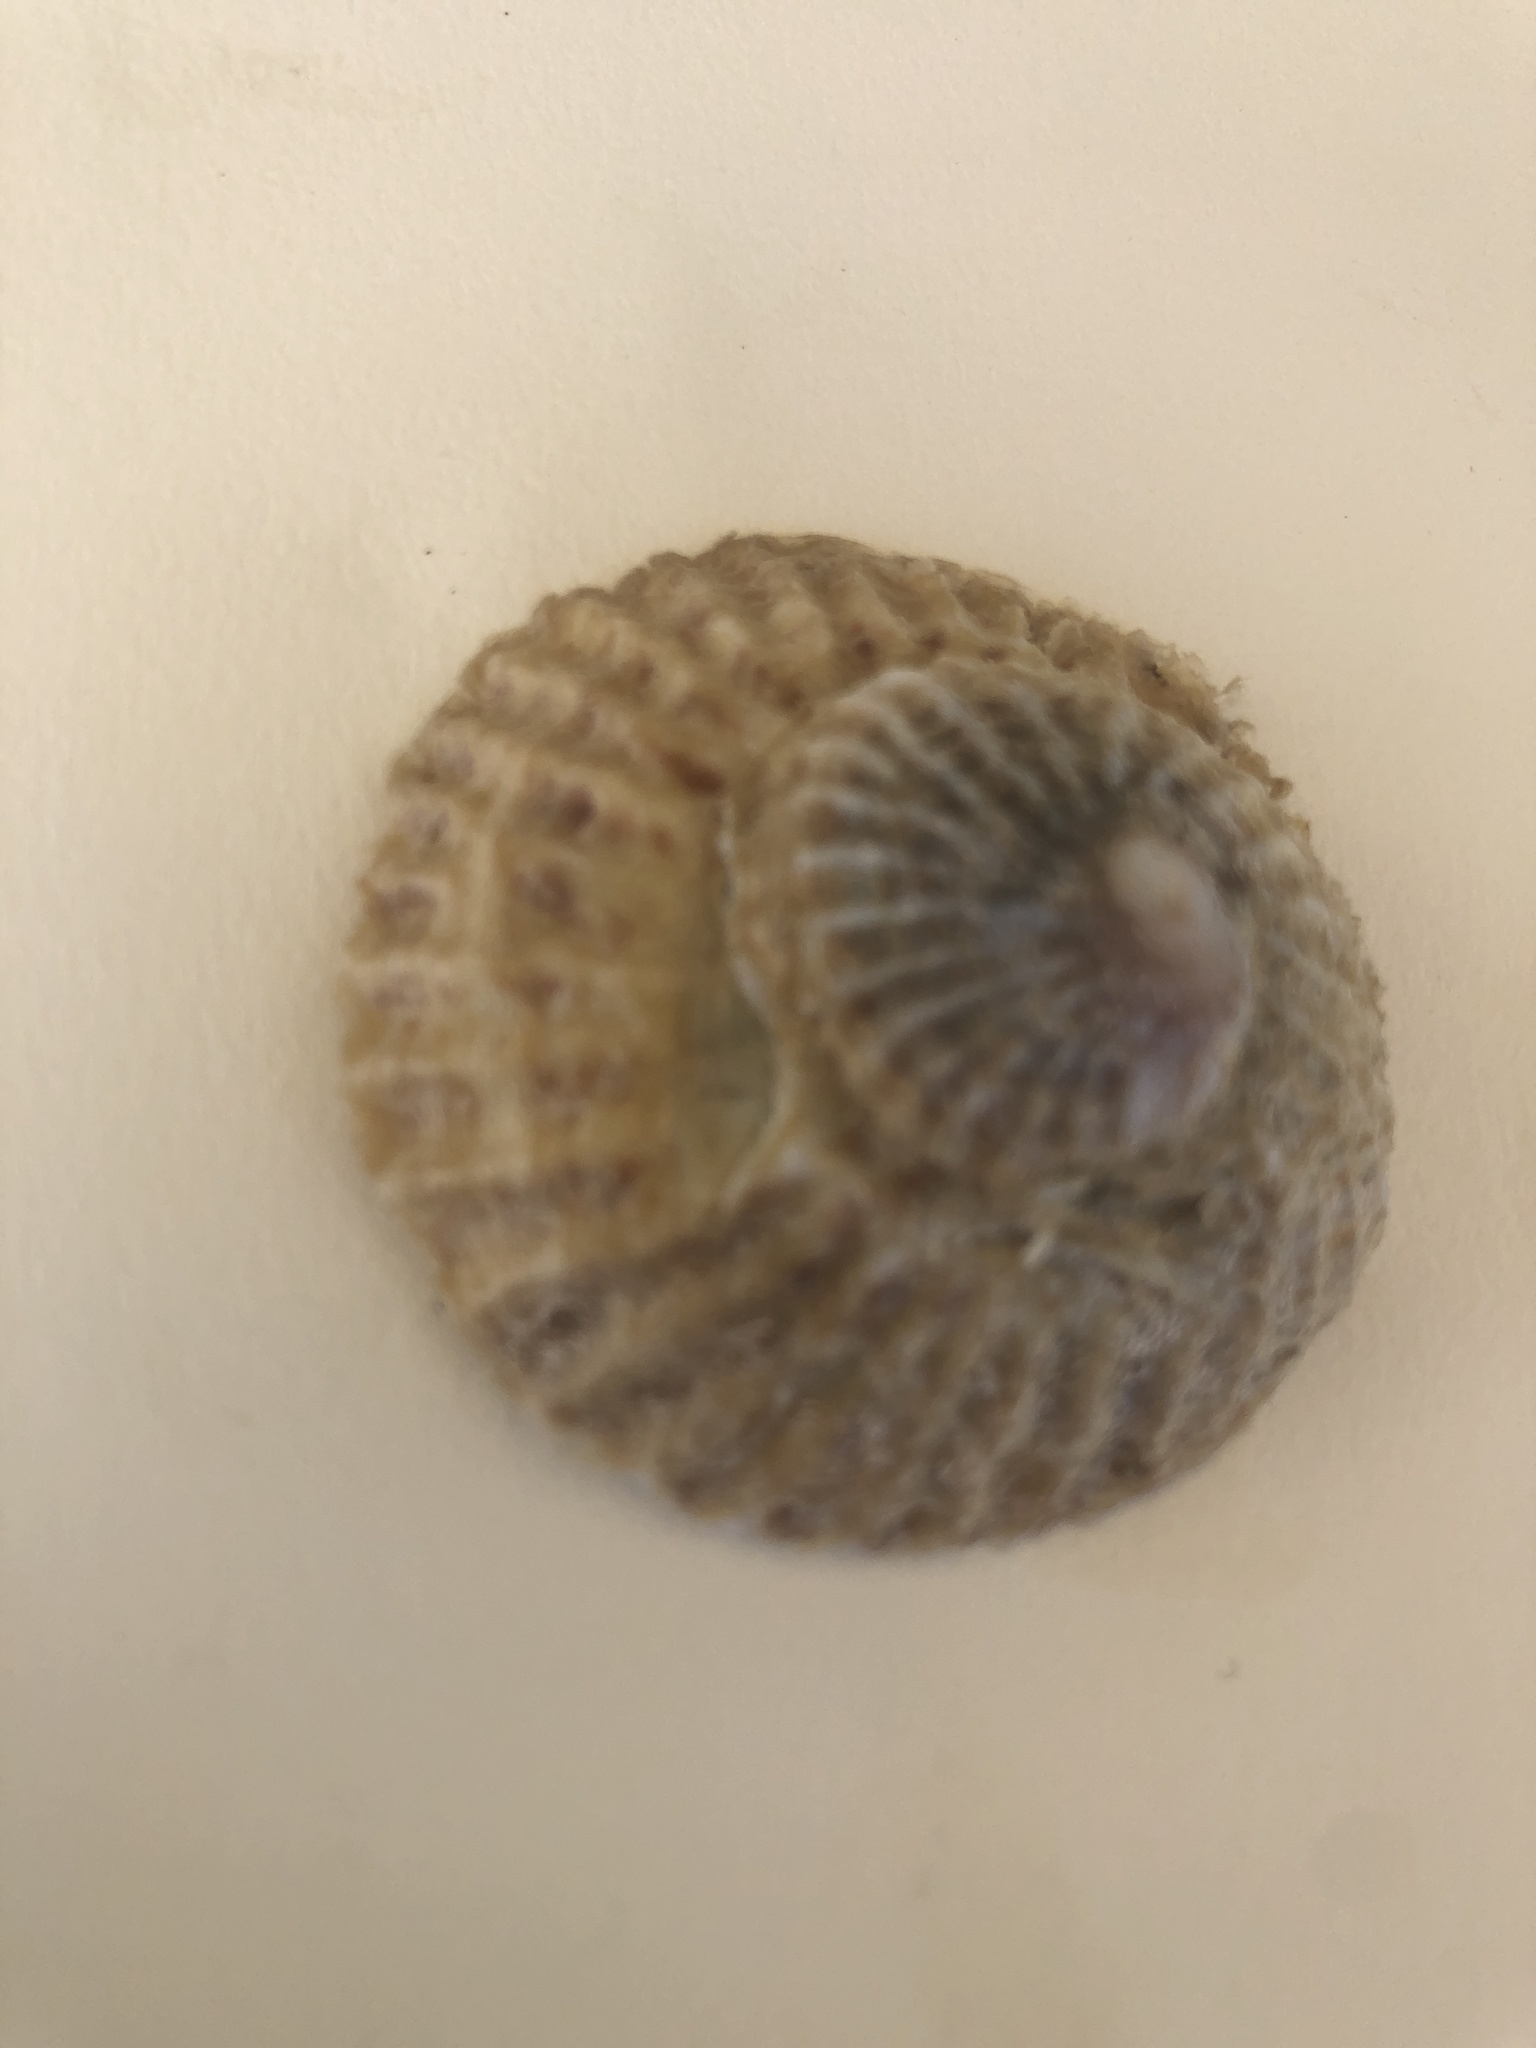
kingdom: Animalia
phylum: Mollusca
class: Gastropoda
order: Littorinimorpha
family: Calyptraeidae
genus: Trochita
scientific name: Trochita trochiformis
